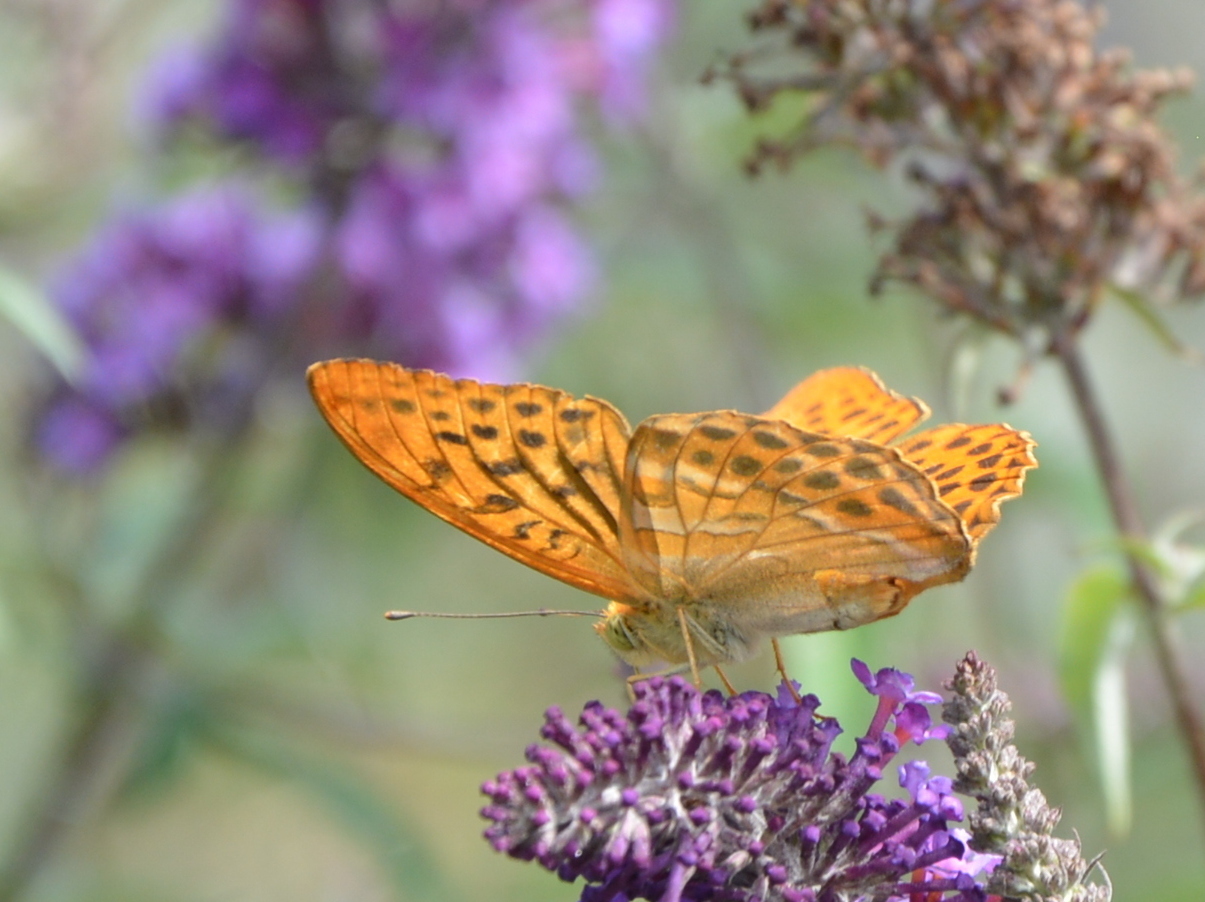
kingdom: Animalia
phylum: Arthropoda
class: Insecta
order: Lepidoptera
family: Nymphalidae
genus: Argynnis
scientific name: Argynnis paphia
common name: Silver-washed fritillary
